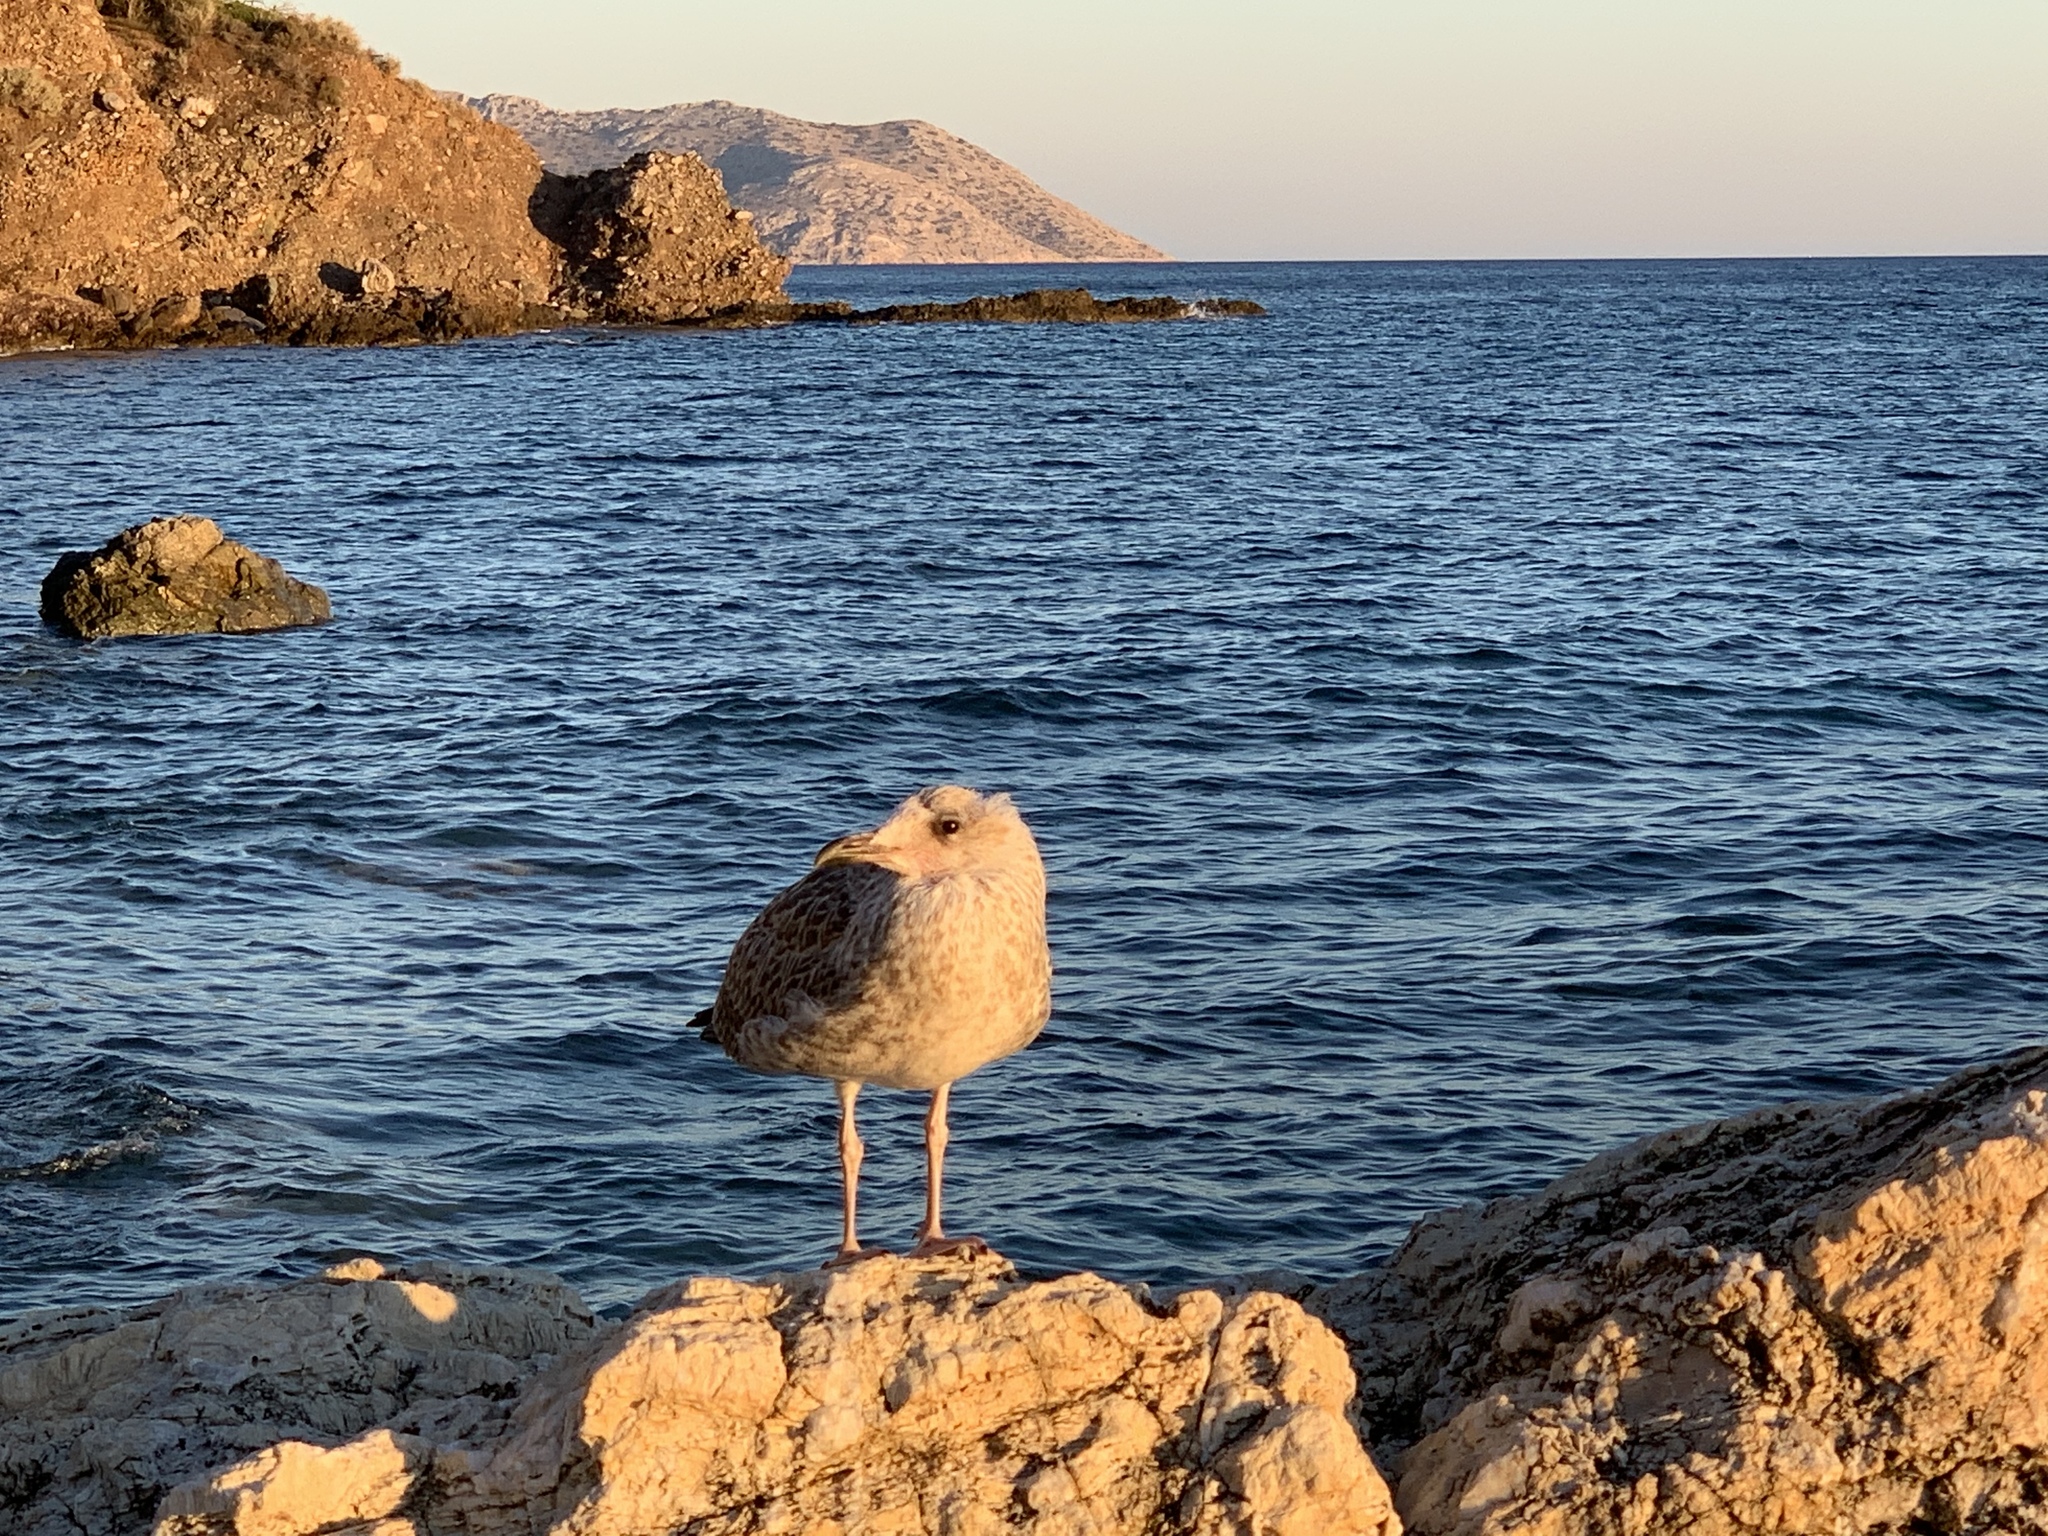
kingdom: Animalia
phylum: Chordata
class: Aves
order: Charadriiformes
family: Laridae
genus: Larus
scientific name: Larus michahellis
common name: Yellow-legged gull
